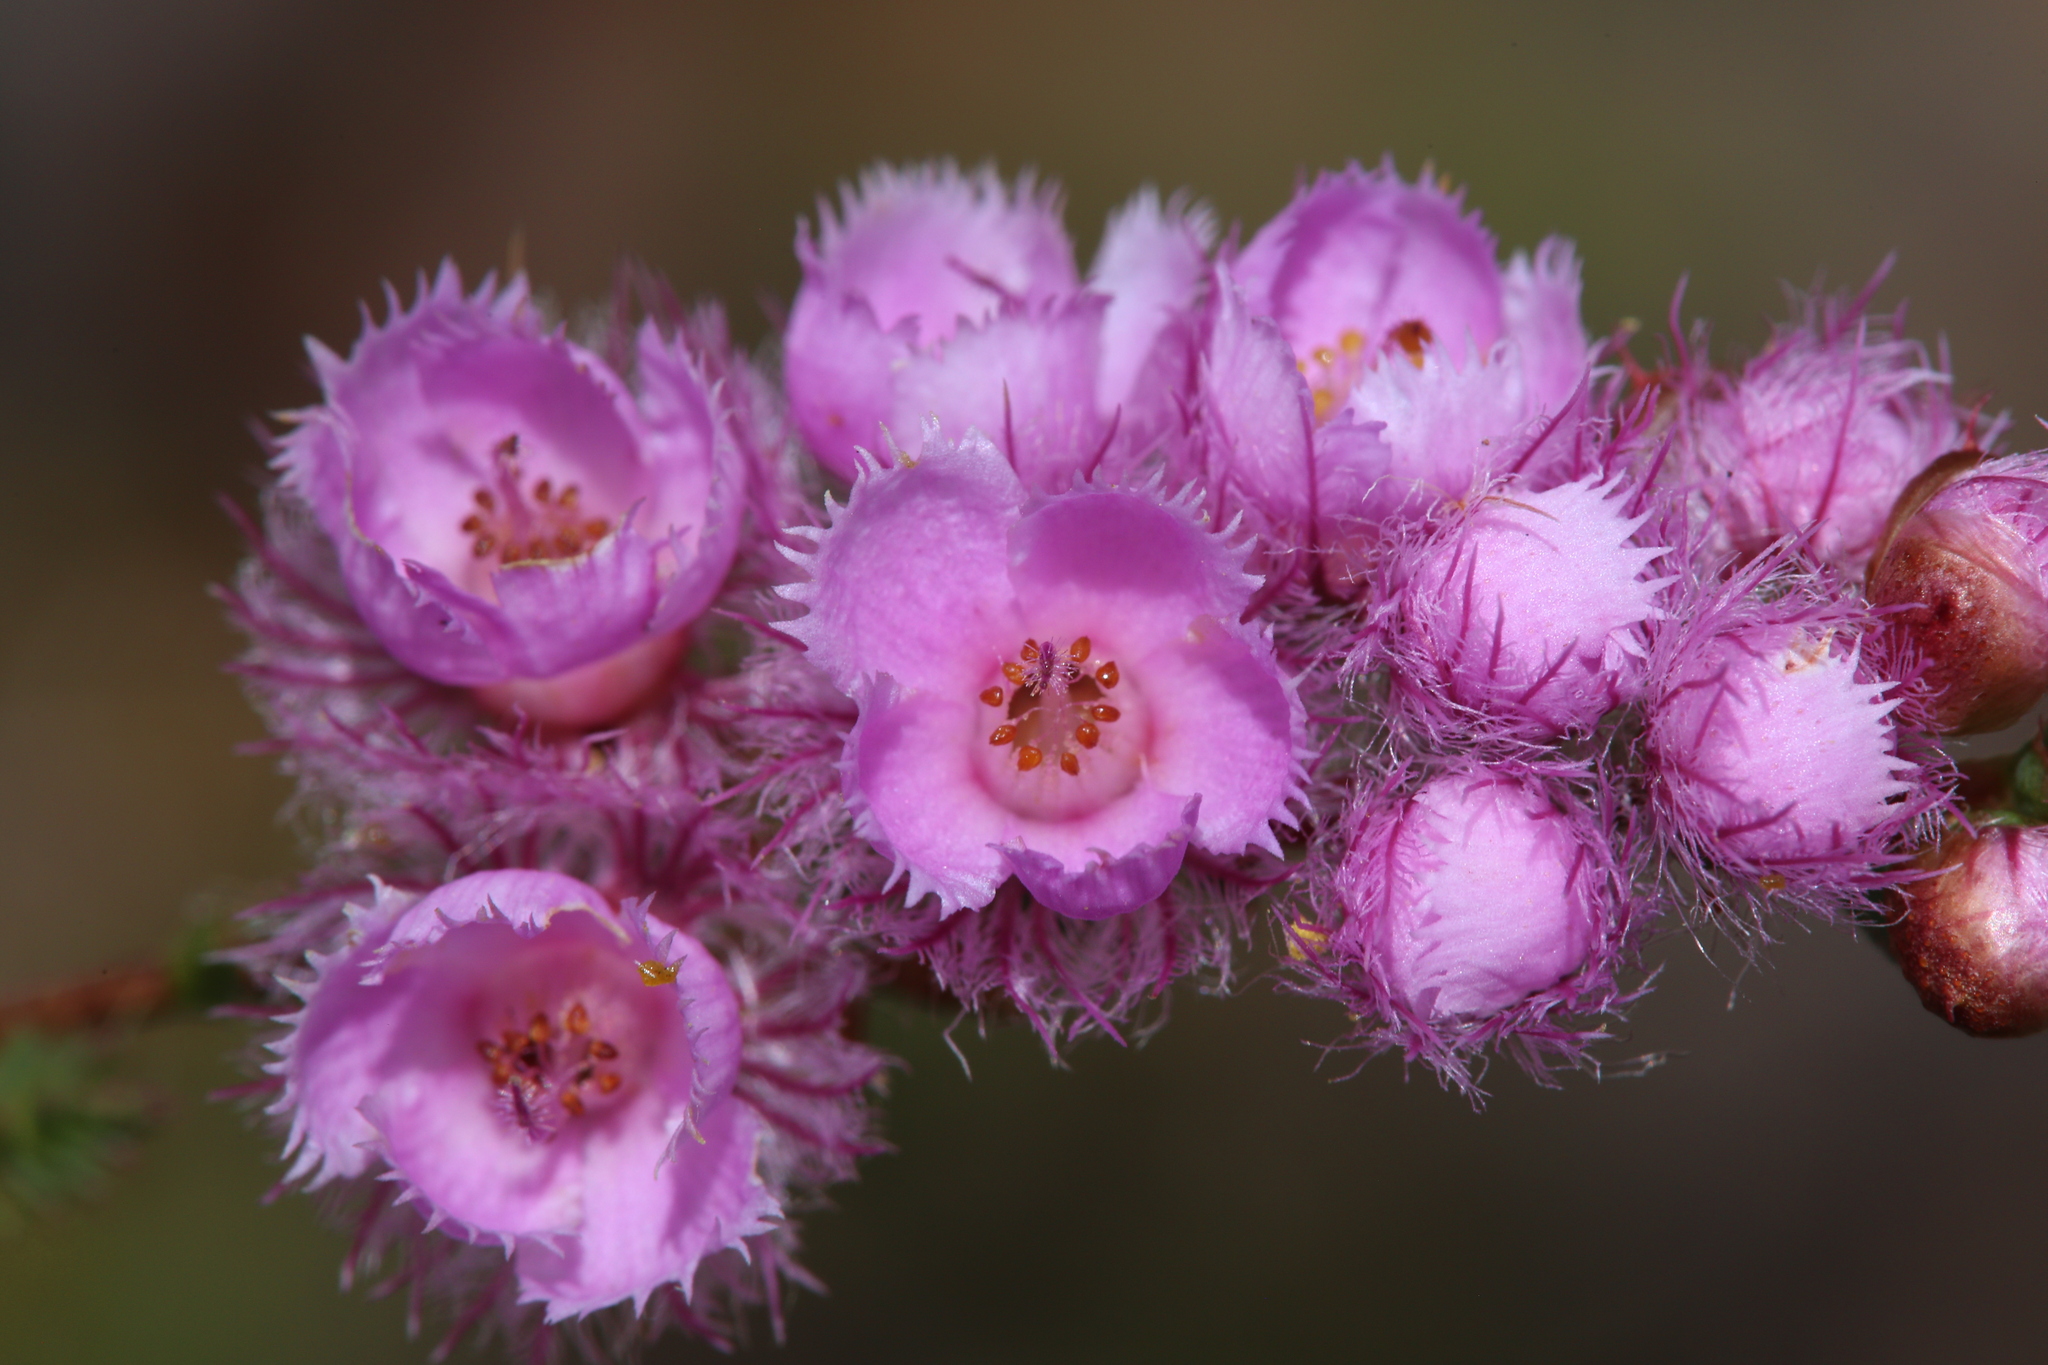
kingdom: Plantae
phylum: Tracheophyta
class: Magnoliopsida
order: Myrtales
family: Myrtaceae
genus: Verticordia
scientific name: Verticordia pennigera
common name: Native-tea
